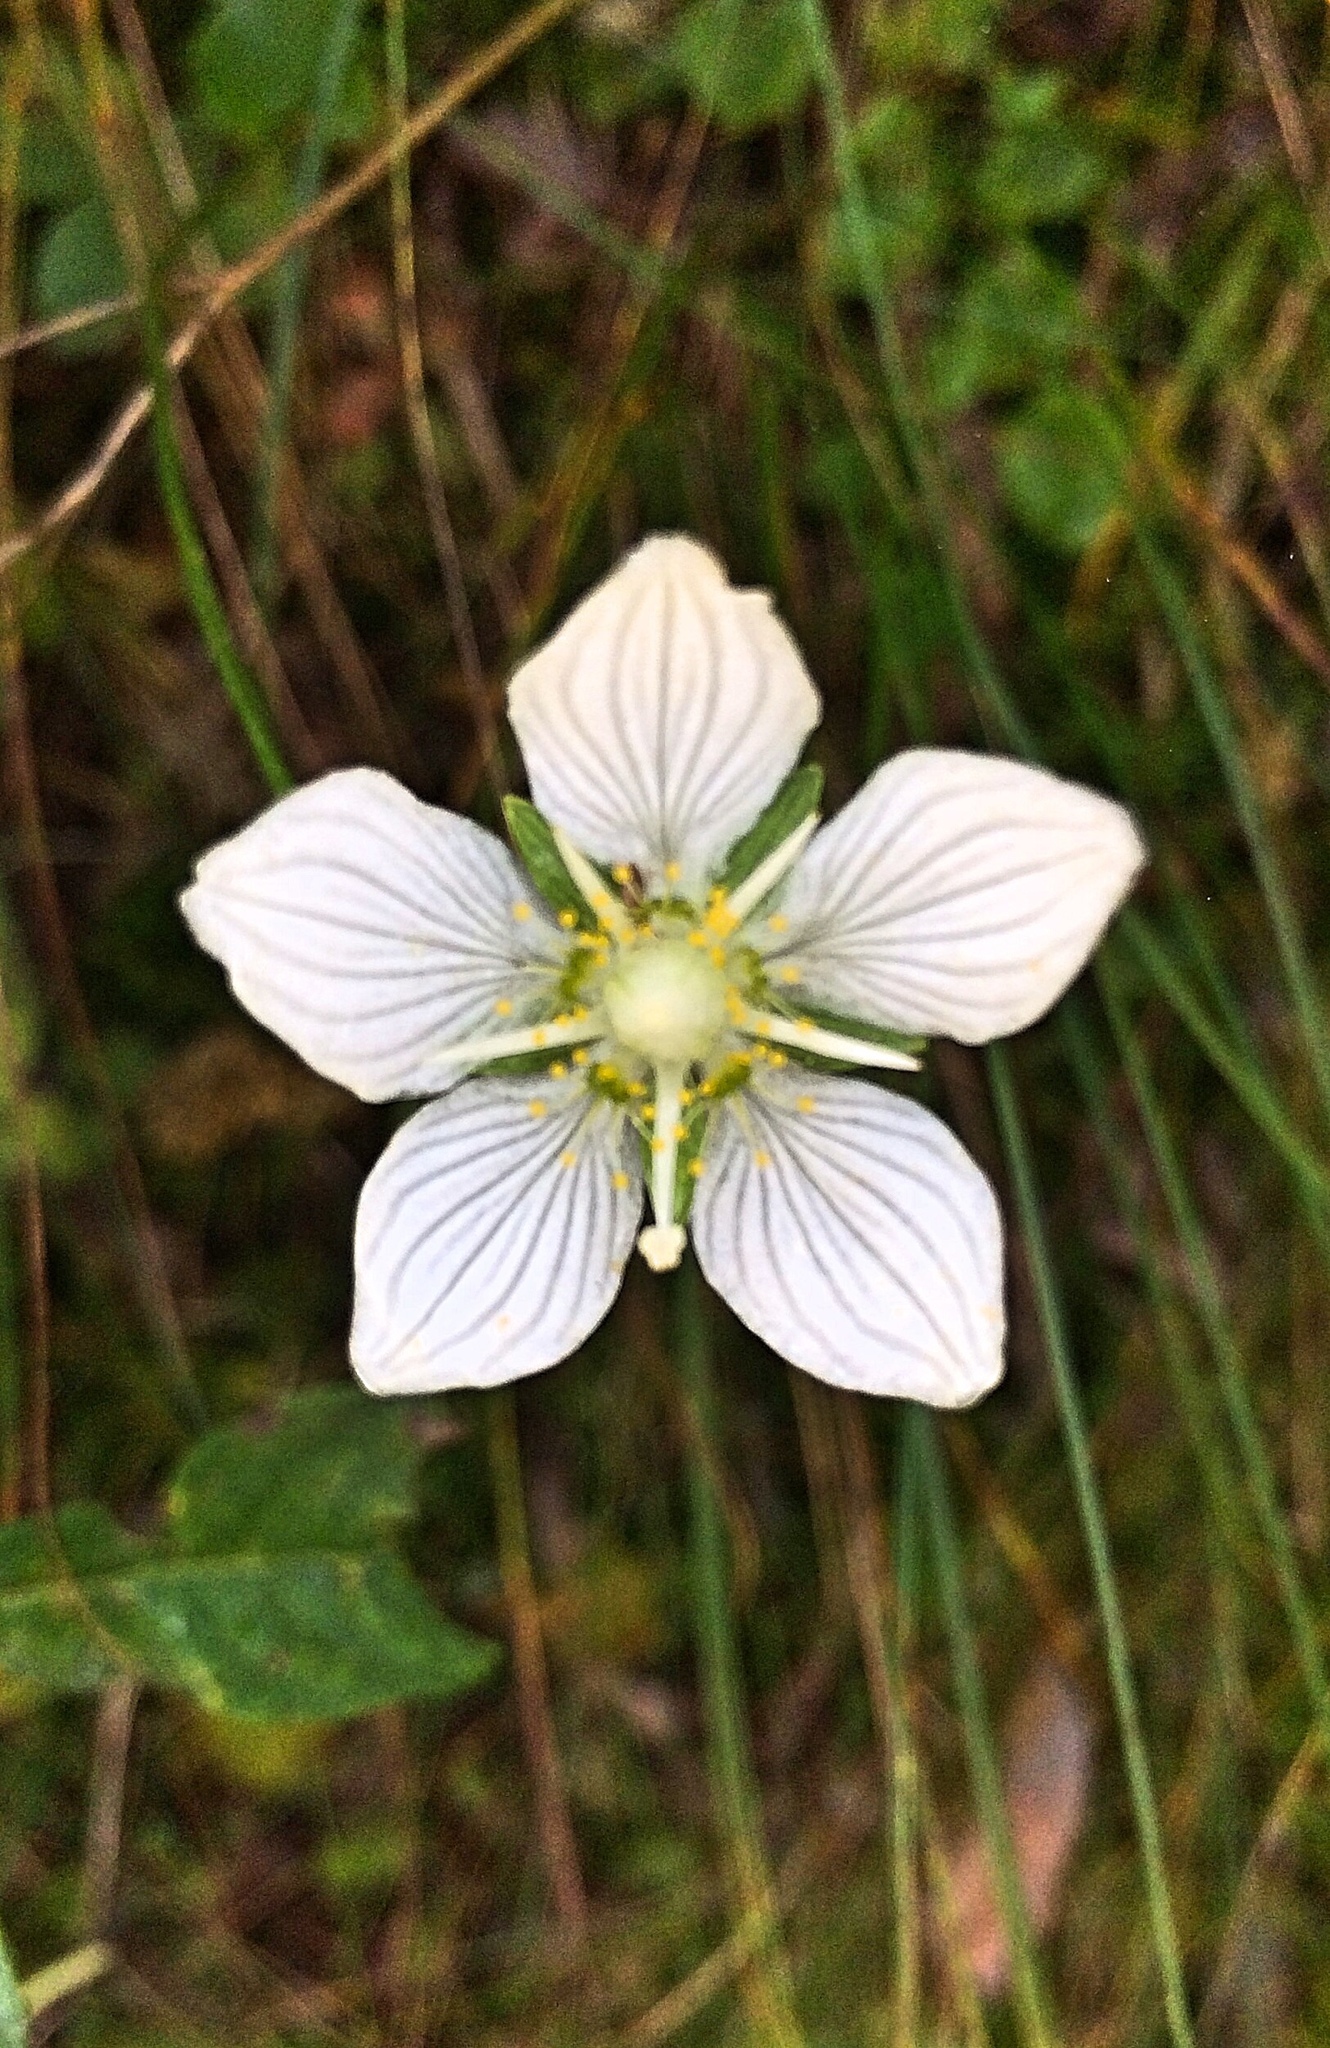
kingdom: Plantae
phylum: Tracheophyta
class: Magnoliopsida
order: Celastrales
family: Parnassiaceae
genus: Parnassia
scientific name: Parnassia palustris
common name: Grass-of-parnassus
